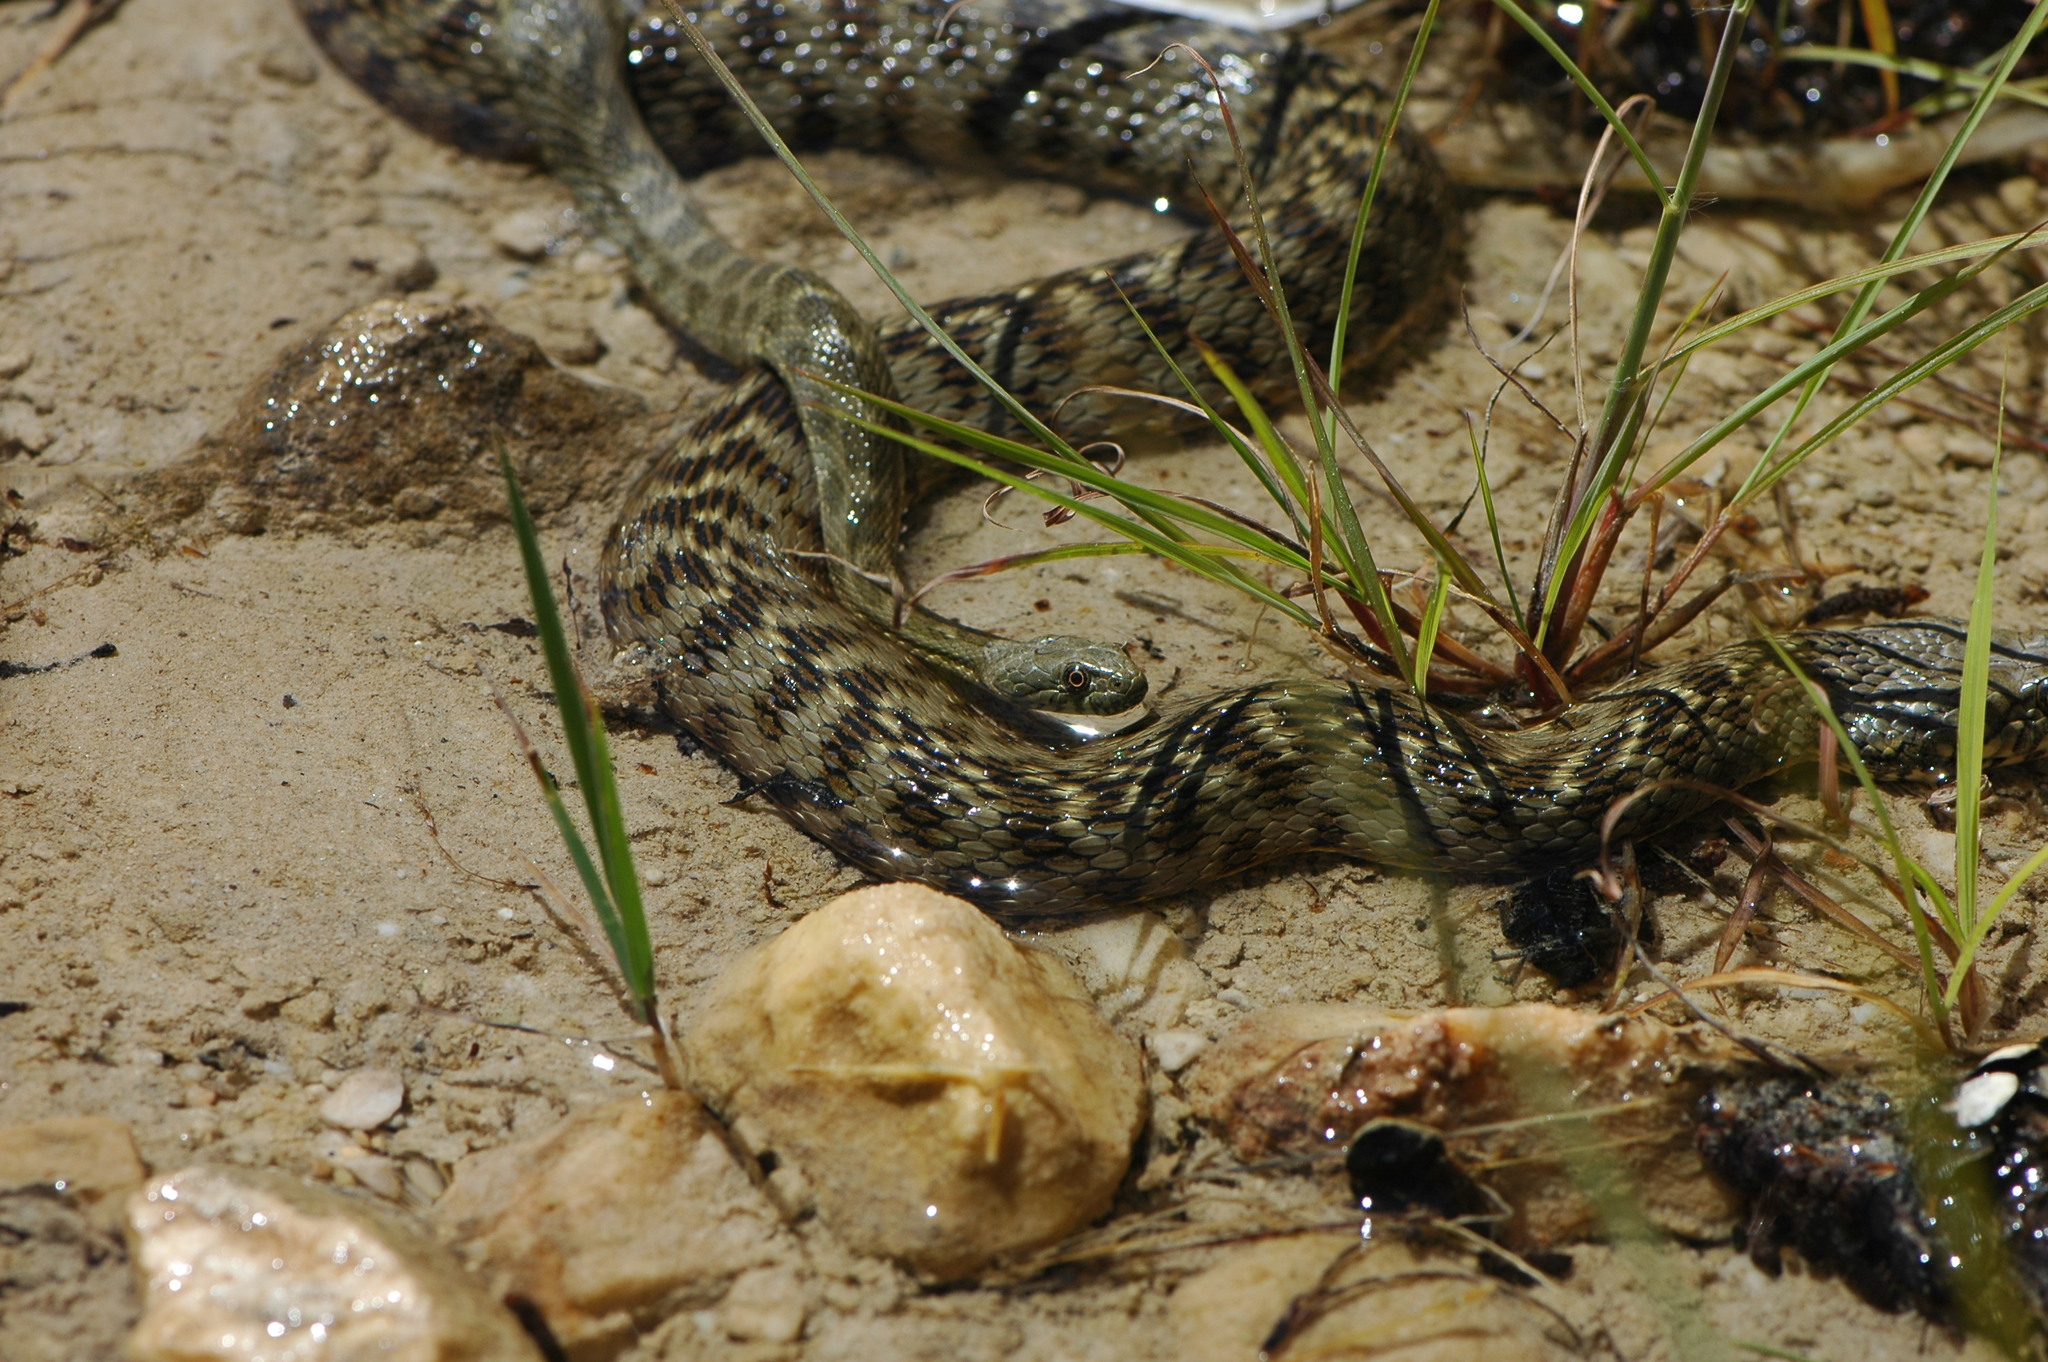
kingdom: Animalia
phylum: Chordata
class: Squamata
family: Colubridae
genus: Natrix
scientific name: Natrix maura
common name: Viperine water snake
